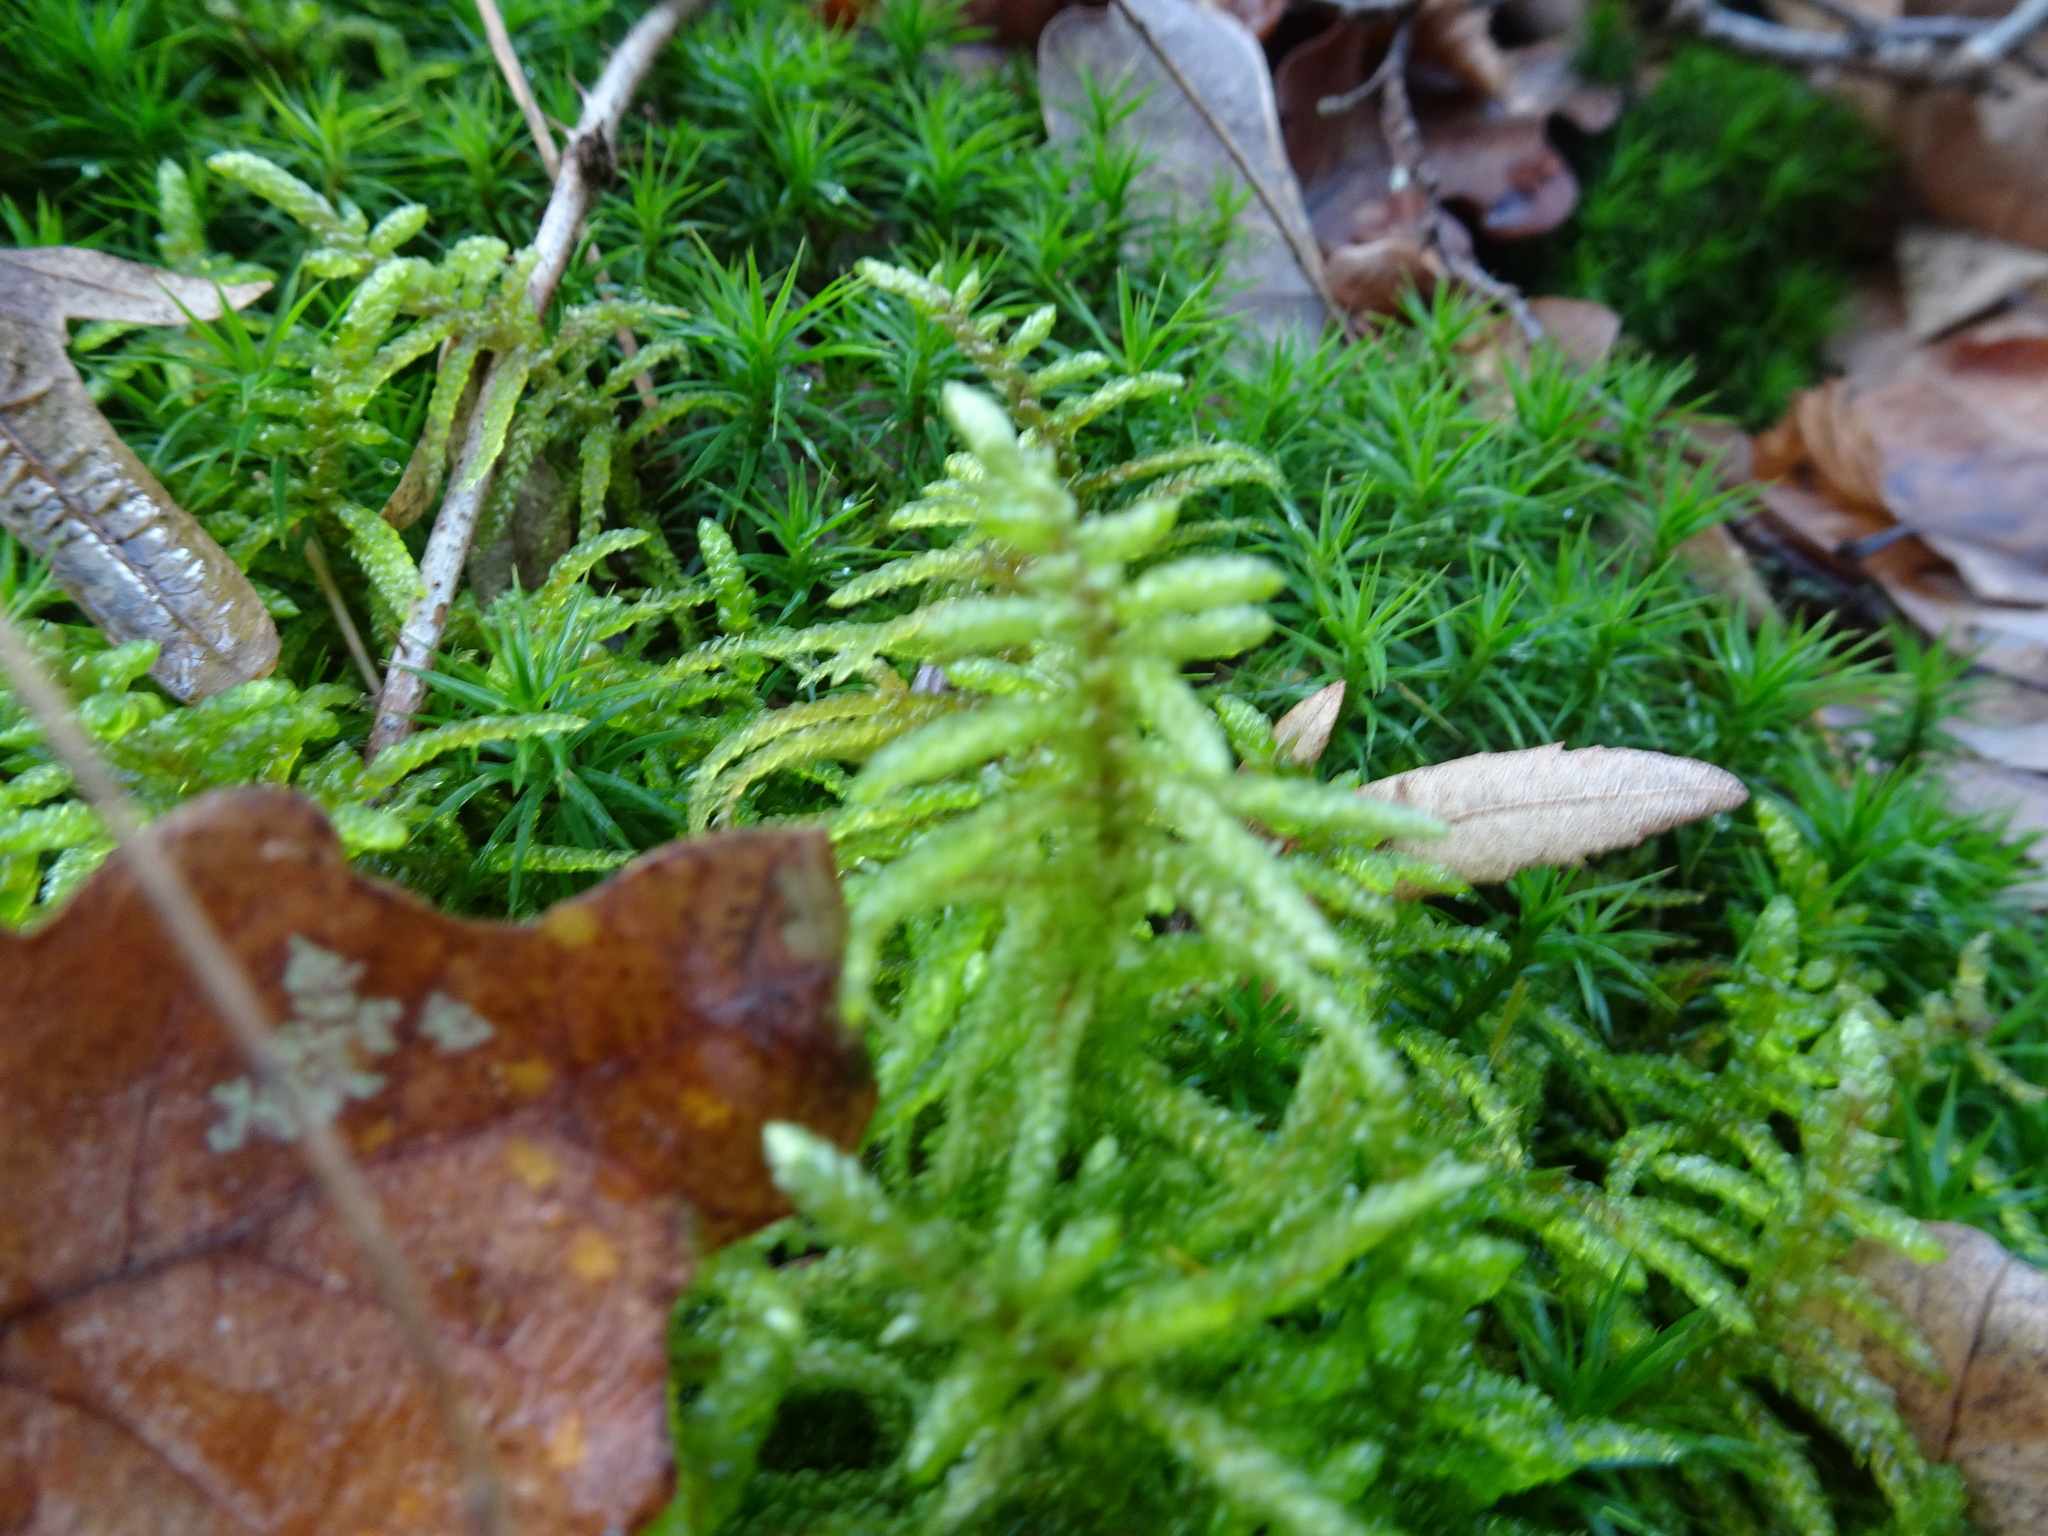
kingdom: Plantae
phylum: Bryophyta
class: Bryopsida
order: Hypnales
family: Brachytheciaceae
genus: Pseudoscleropodium
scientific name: Pseudoscleropodium purum
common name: Neat feather-moss
